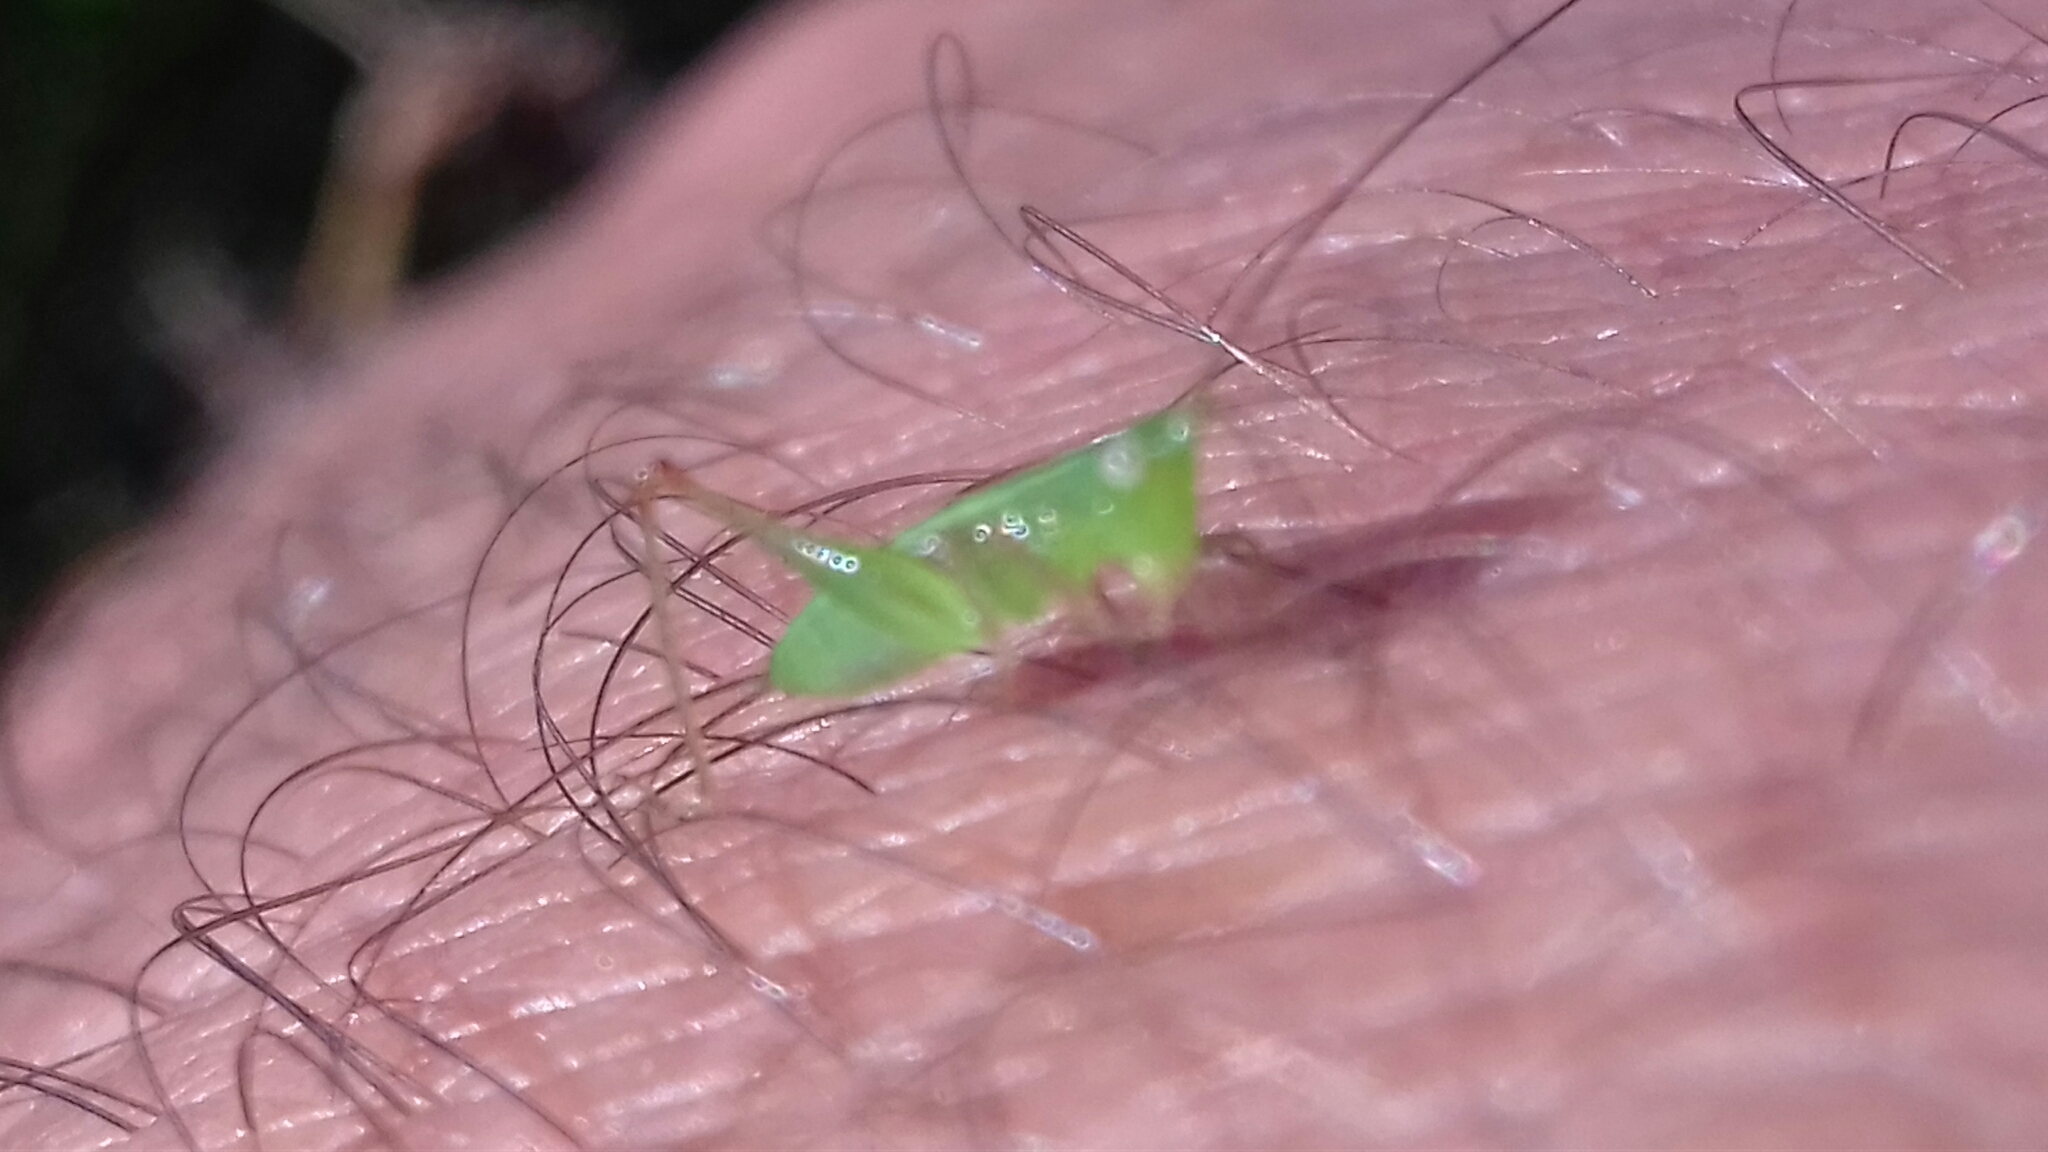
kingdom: Animalia
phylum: Arthropoda
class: Insecta
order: Orthoptera
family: Tettigoniidae
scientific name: Tettigoniidae
